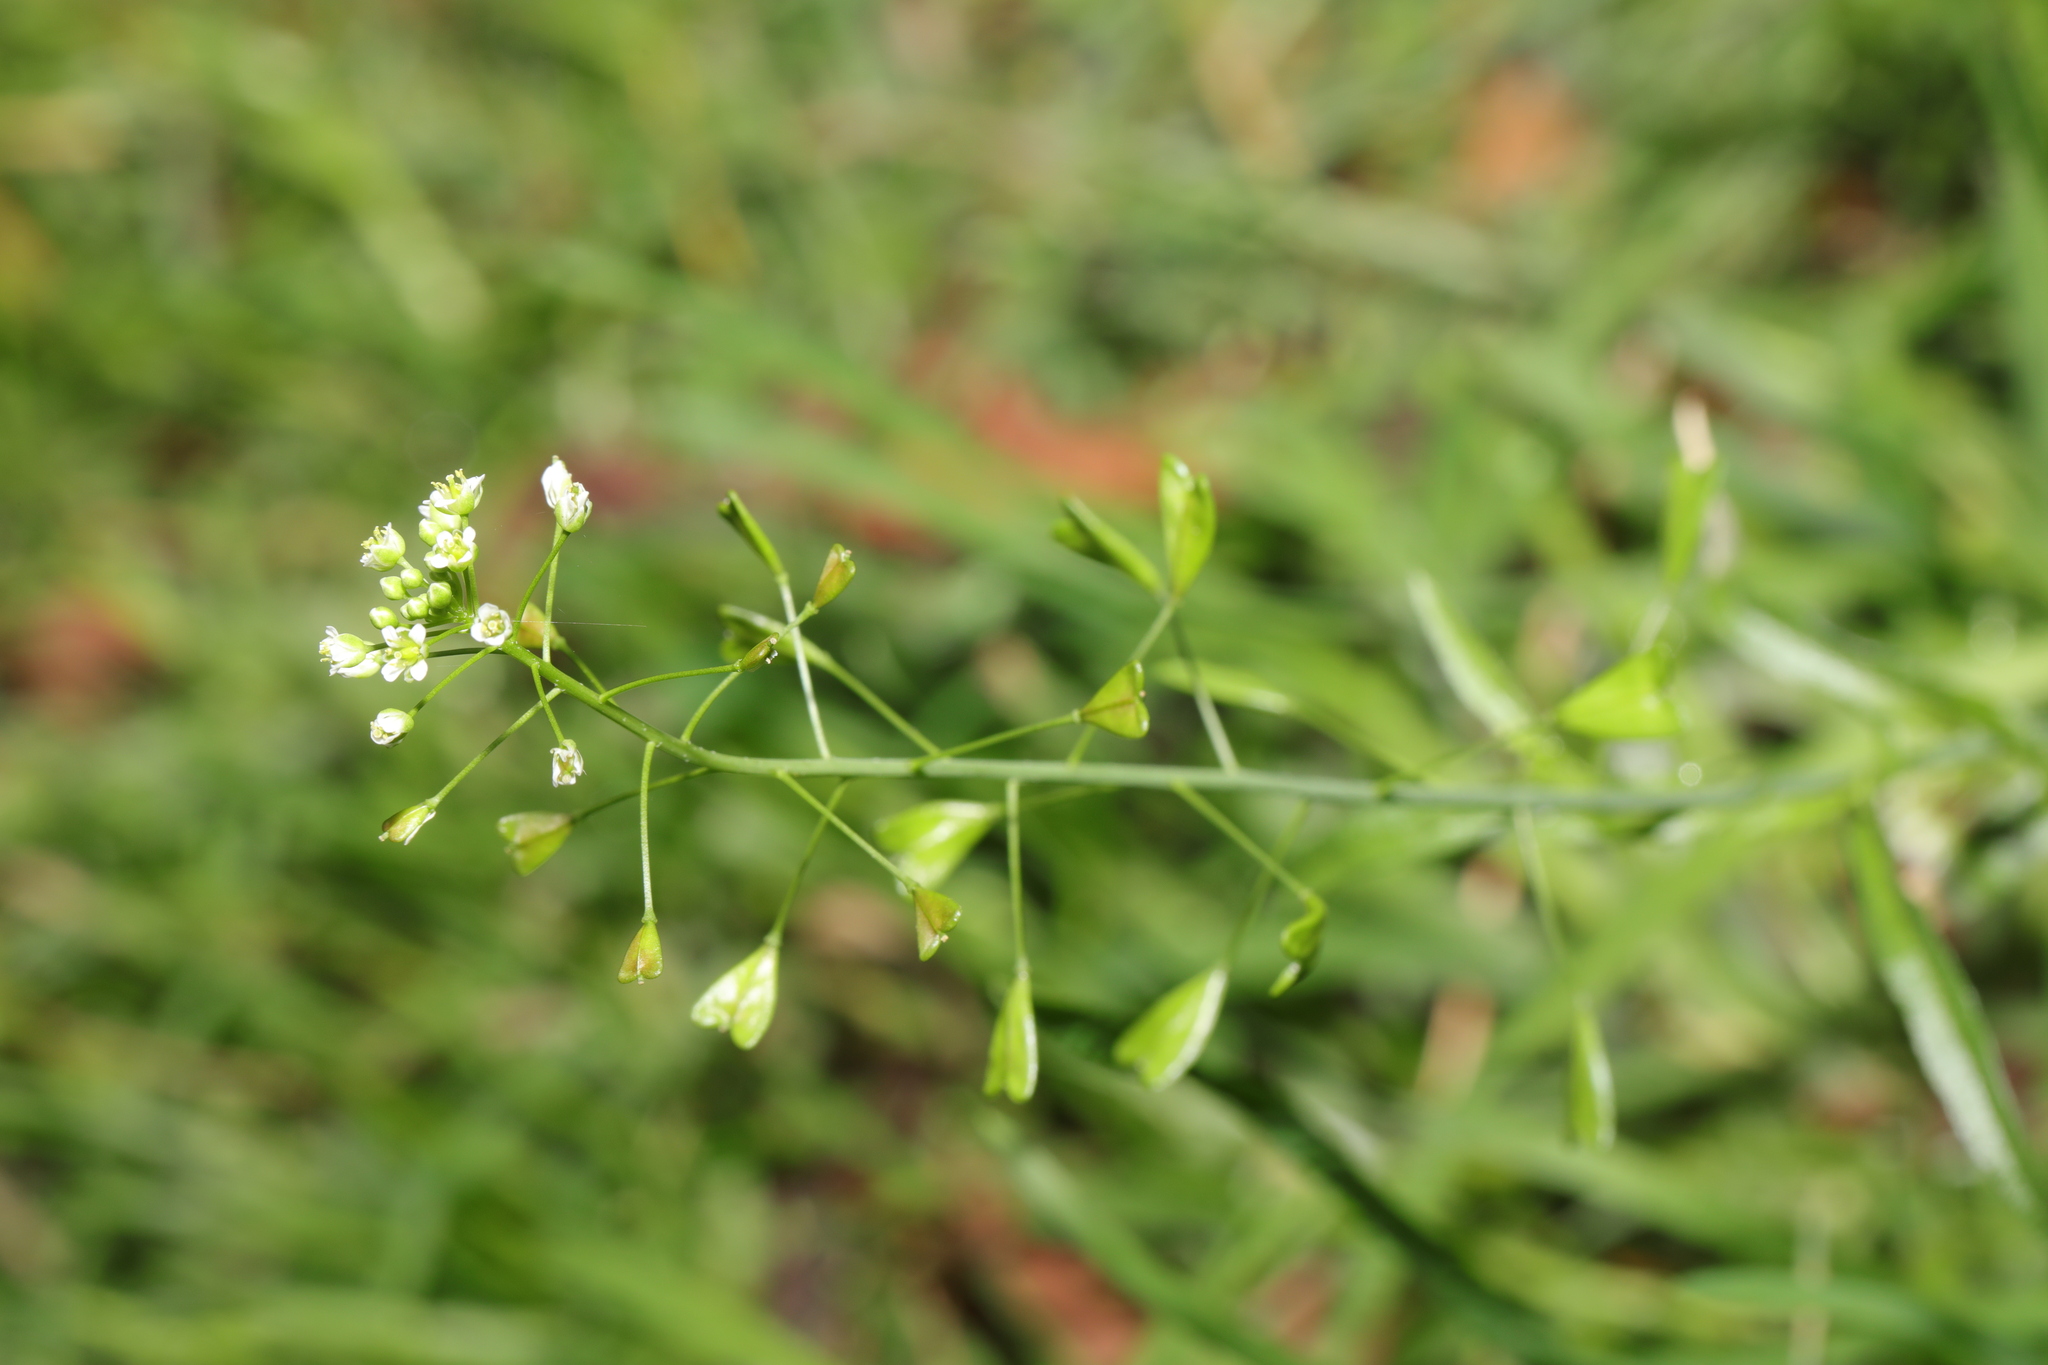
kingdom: Plantae
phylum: Tracheophyta
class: Magnoliopsida
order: Brassicales
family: Brassicaceae
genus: Capsella
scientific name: Capsella bursa-pastoris
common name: Shepherd's purse
